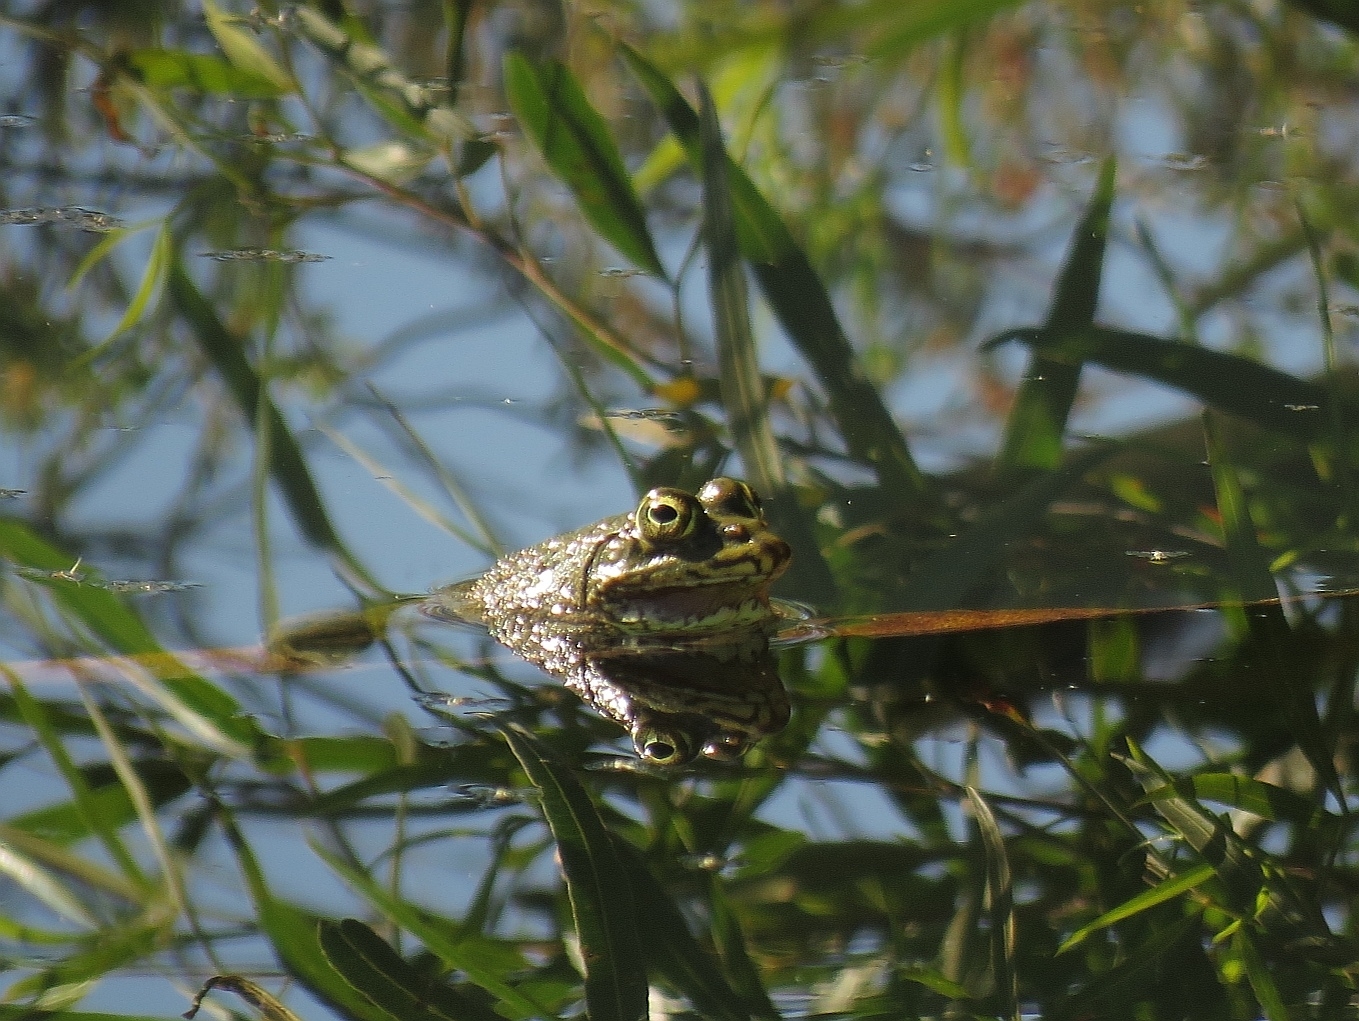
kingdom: Animalia
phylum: Chordata
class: Amphibia
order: Anura
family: Pyxicephalidae
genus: Amietia
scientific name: Amietia poyntoni
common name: Poynton's river frog
